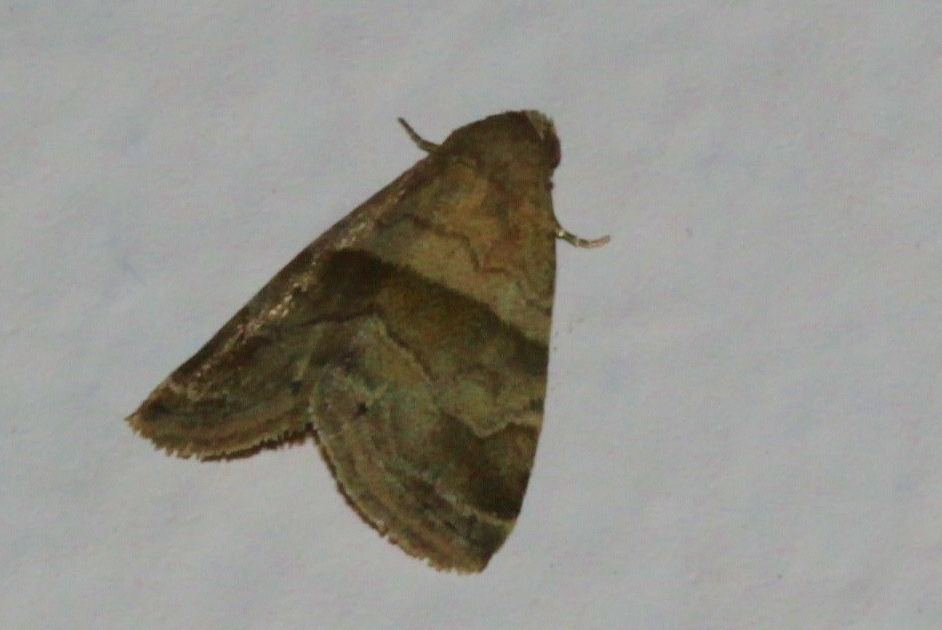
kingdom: Animalia
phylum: Arthropoda
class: Insecta
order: Lepidoptera
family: Noctuidae
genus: Ozarba
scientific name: Ozarba isocampta
